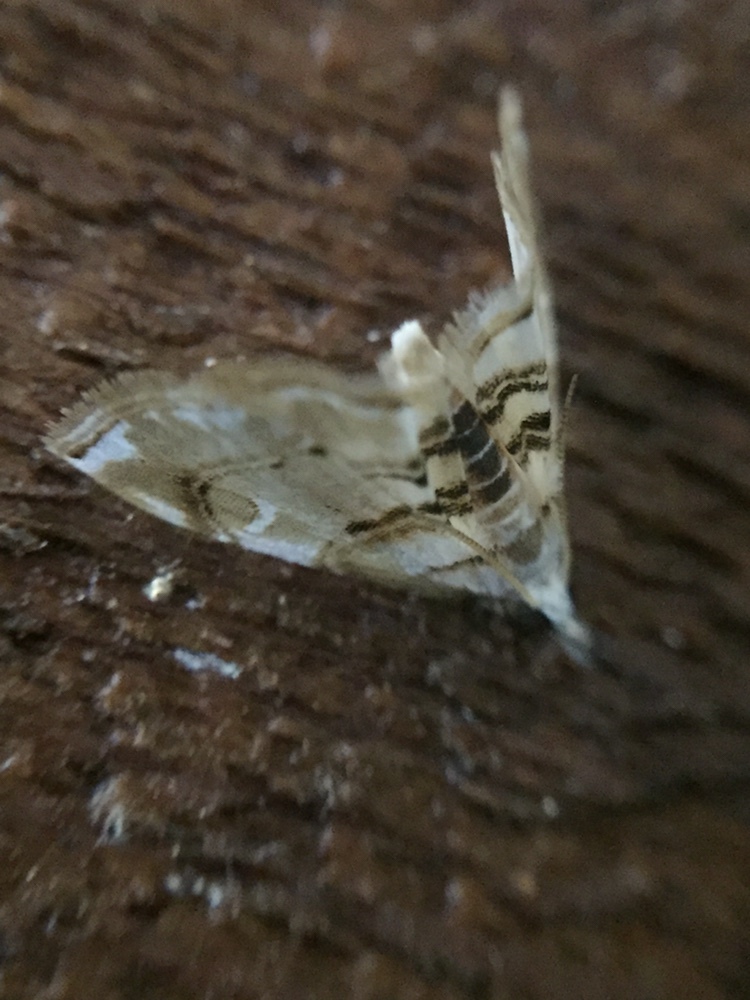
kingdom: Animalia
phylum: Arthropoda
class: Insecta
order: Lepidoptera
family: Crambidae
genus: Trichophysetis
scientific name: Trichophysetis
